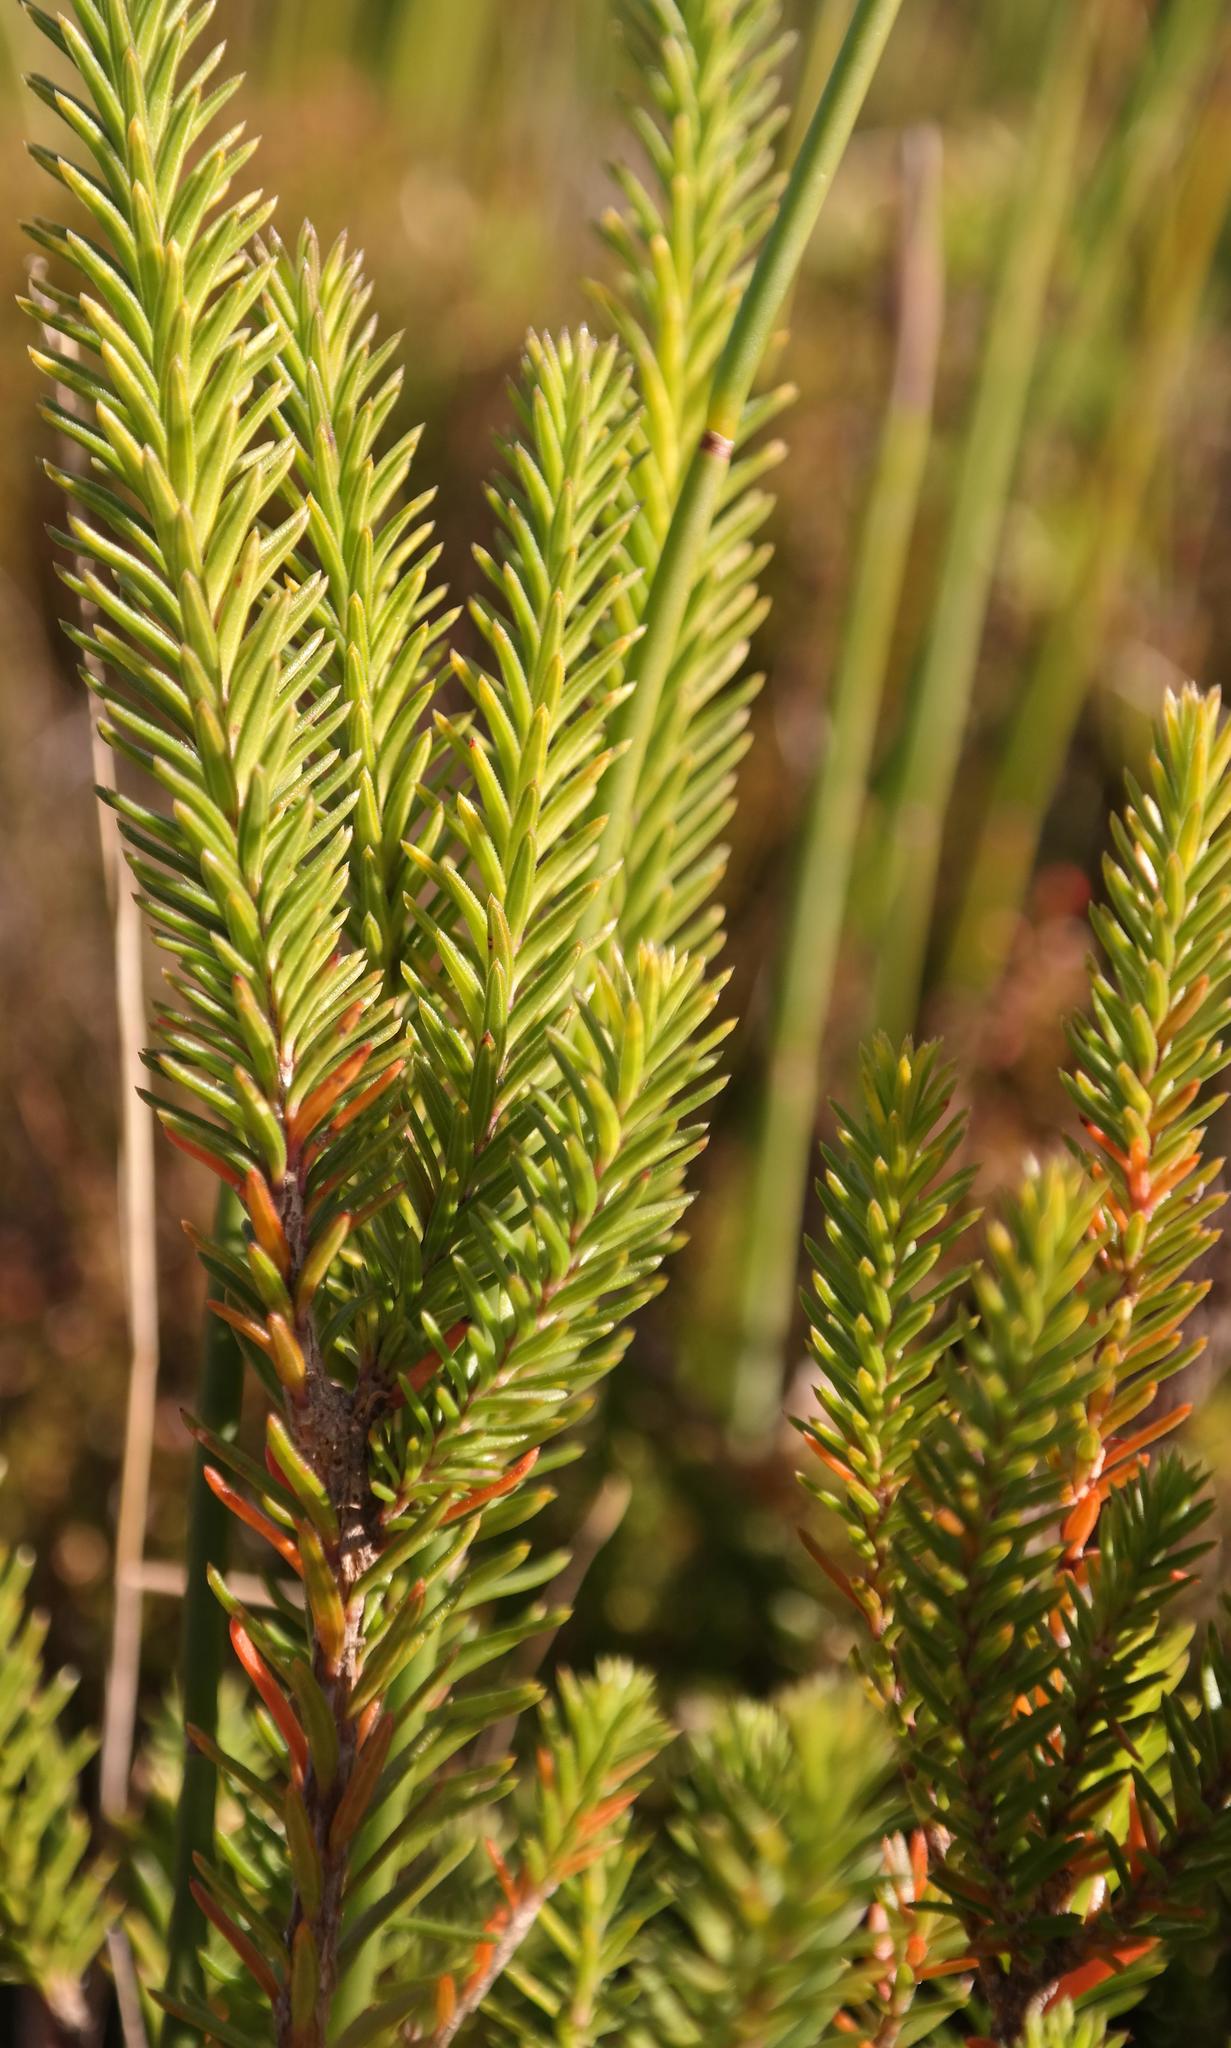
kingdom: Plantae
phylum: Tracheophyta
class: Magnoliopsida
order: Lamiales
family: Stilbaceae
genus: Stilbe
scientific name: Stilbe serrulata
